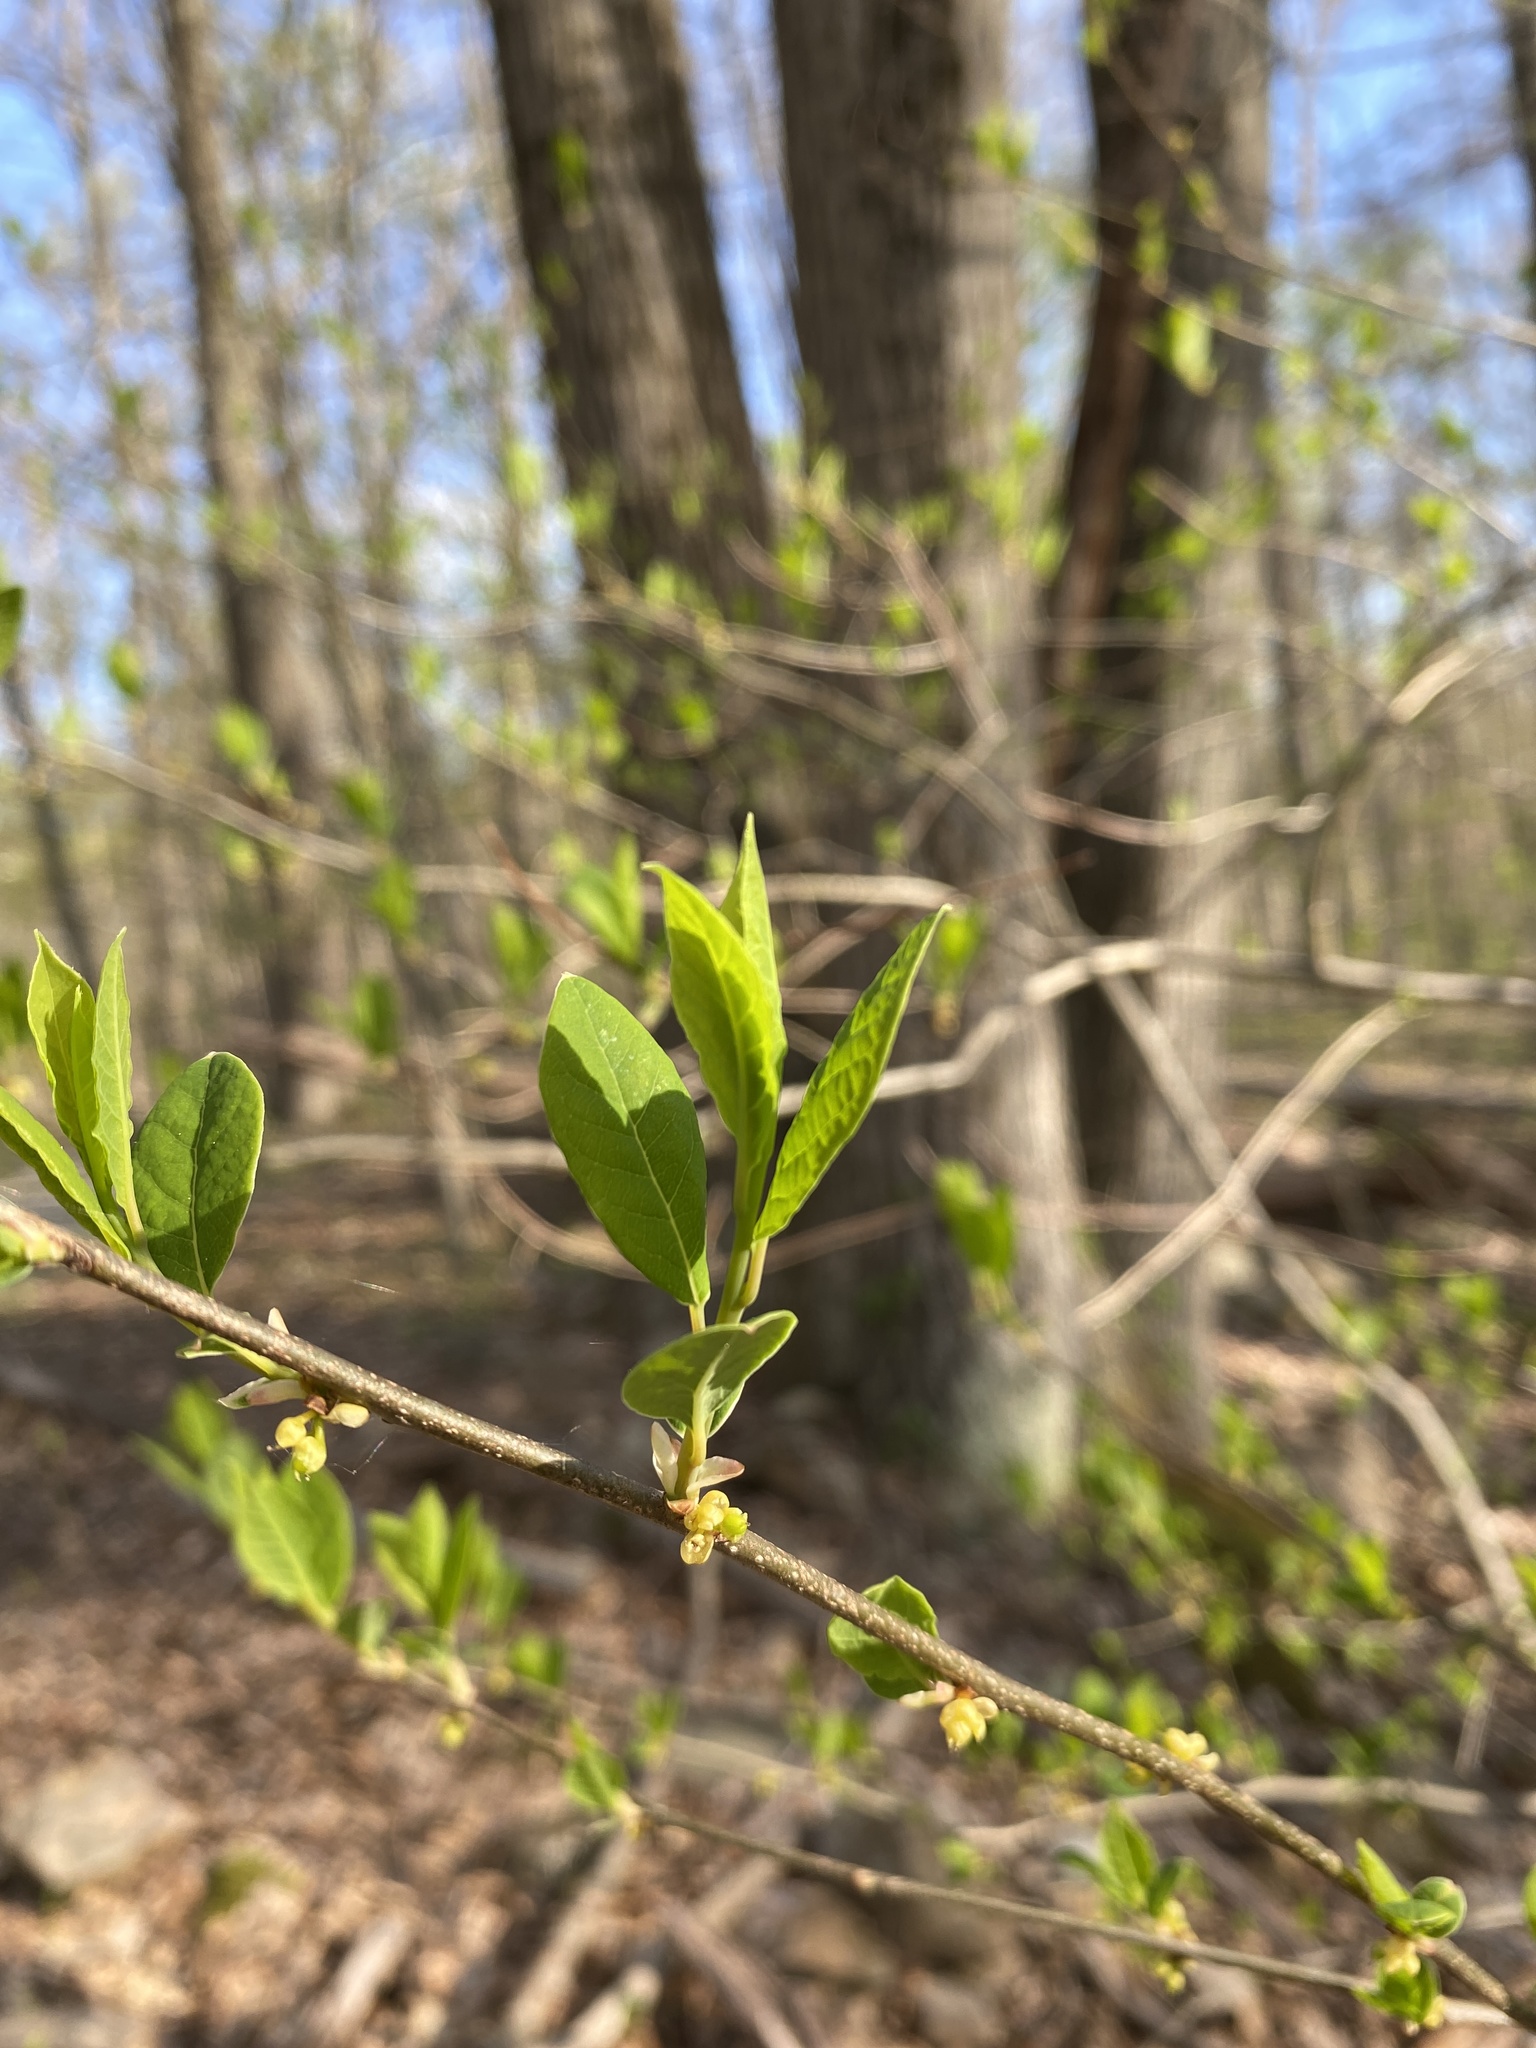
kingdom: Plantae
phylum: Tracheophyta
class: Magnoliopsida
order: Laurales
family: Lauraceae
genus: Lindera
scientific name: Lindera benzoin
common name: Spicebush
